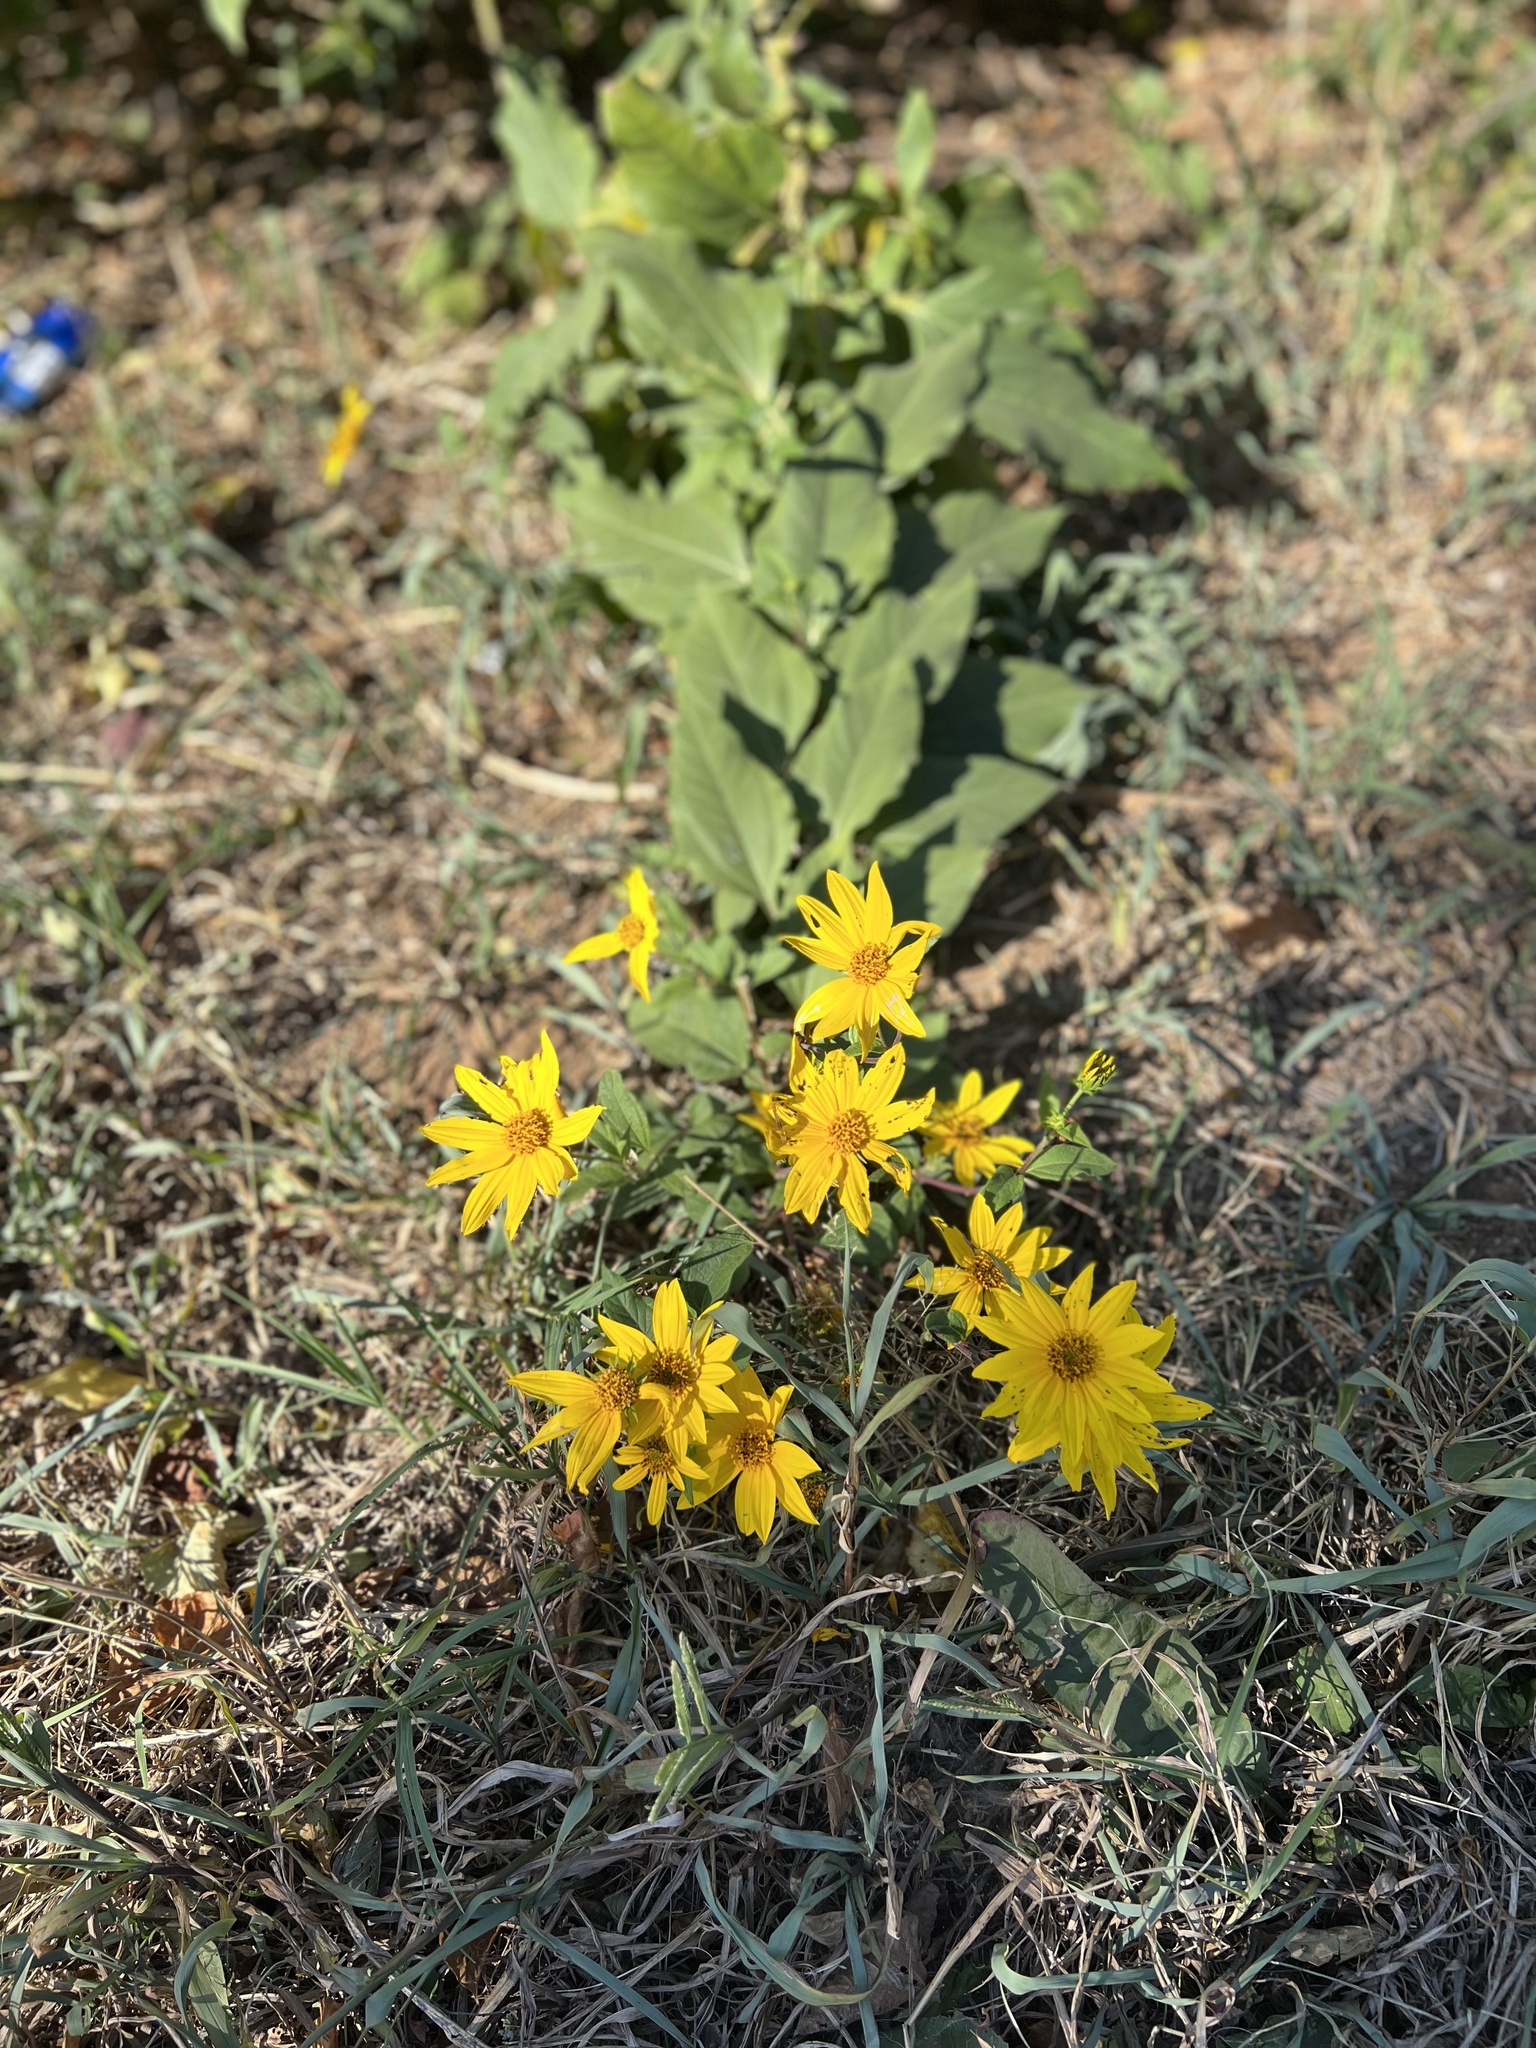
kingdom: Plantae
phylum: Tracheophyta
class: Magnoliopsida
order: Asterales
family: Asteraceae
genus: Verbesina
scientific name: Verbesina encelioides
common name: Golden crownbeard
